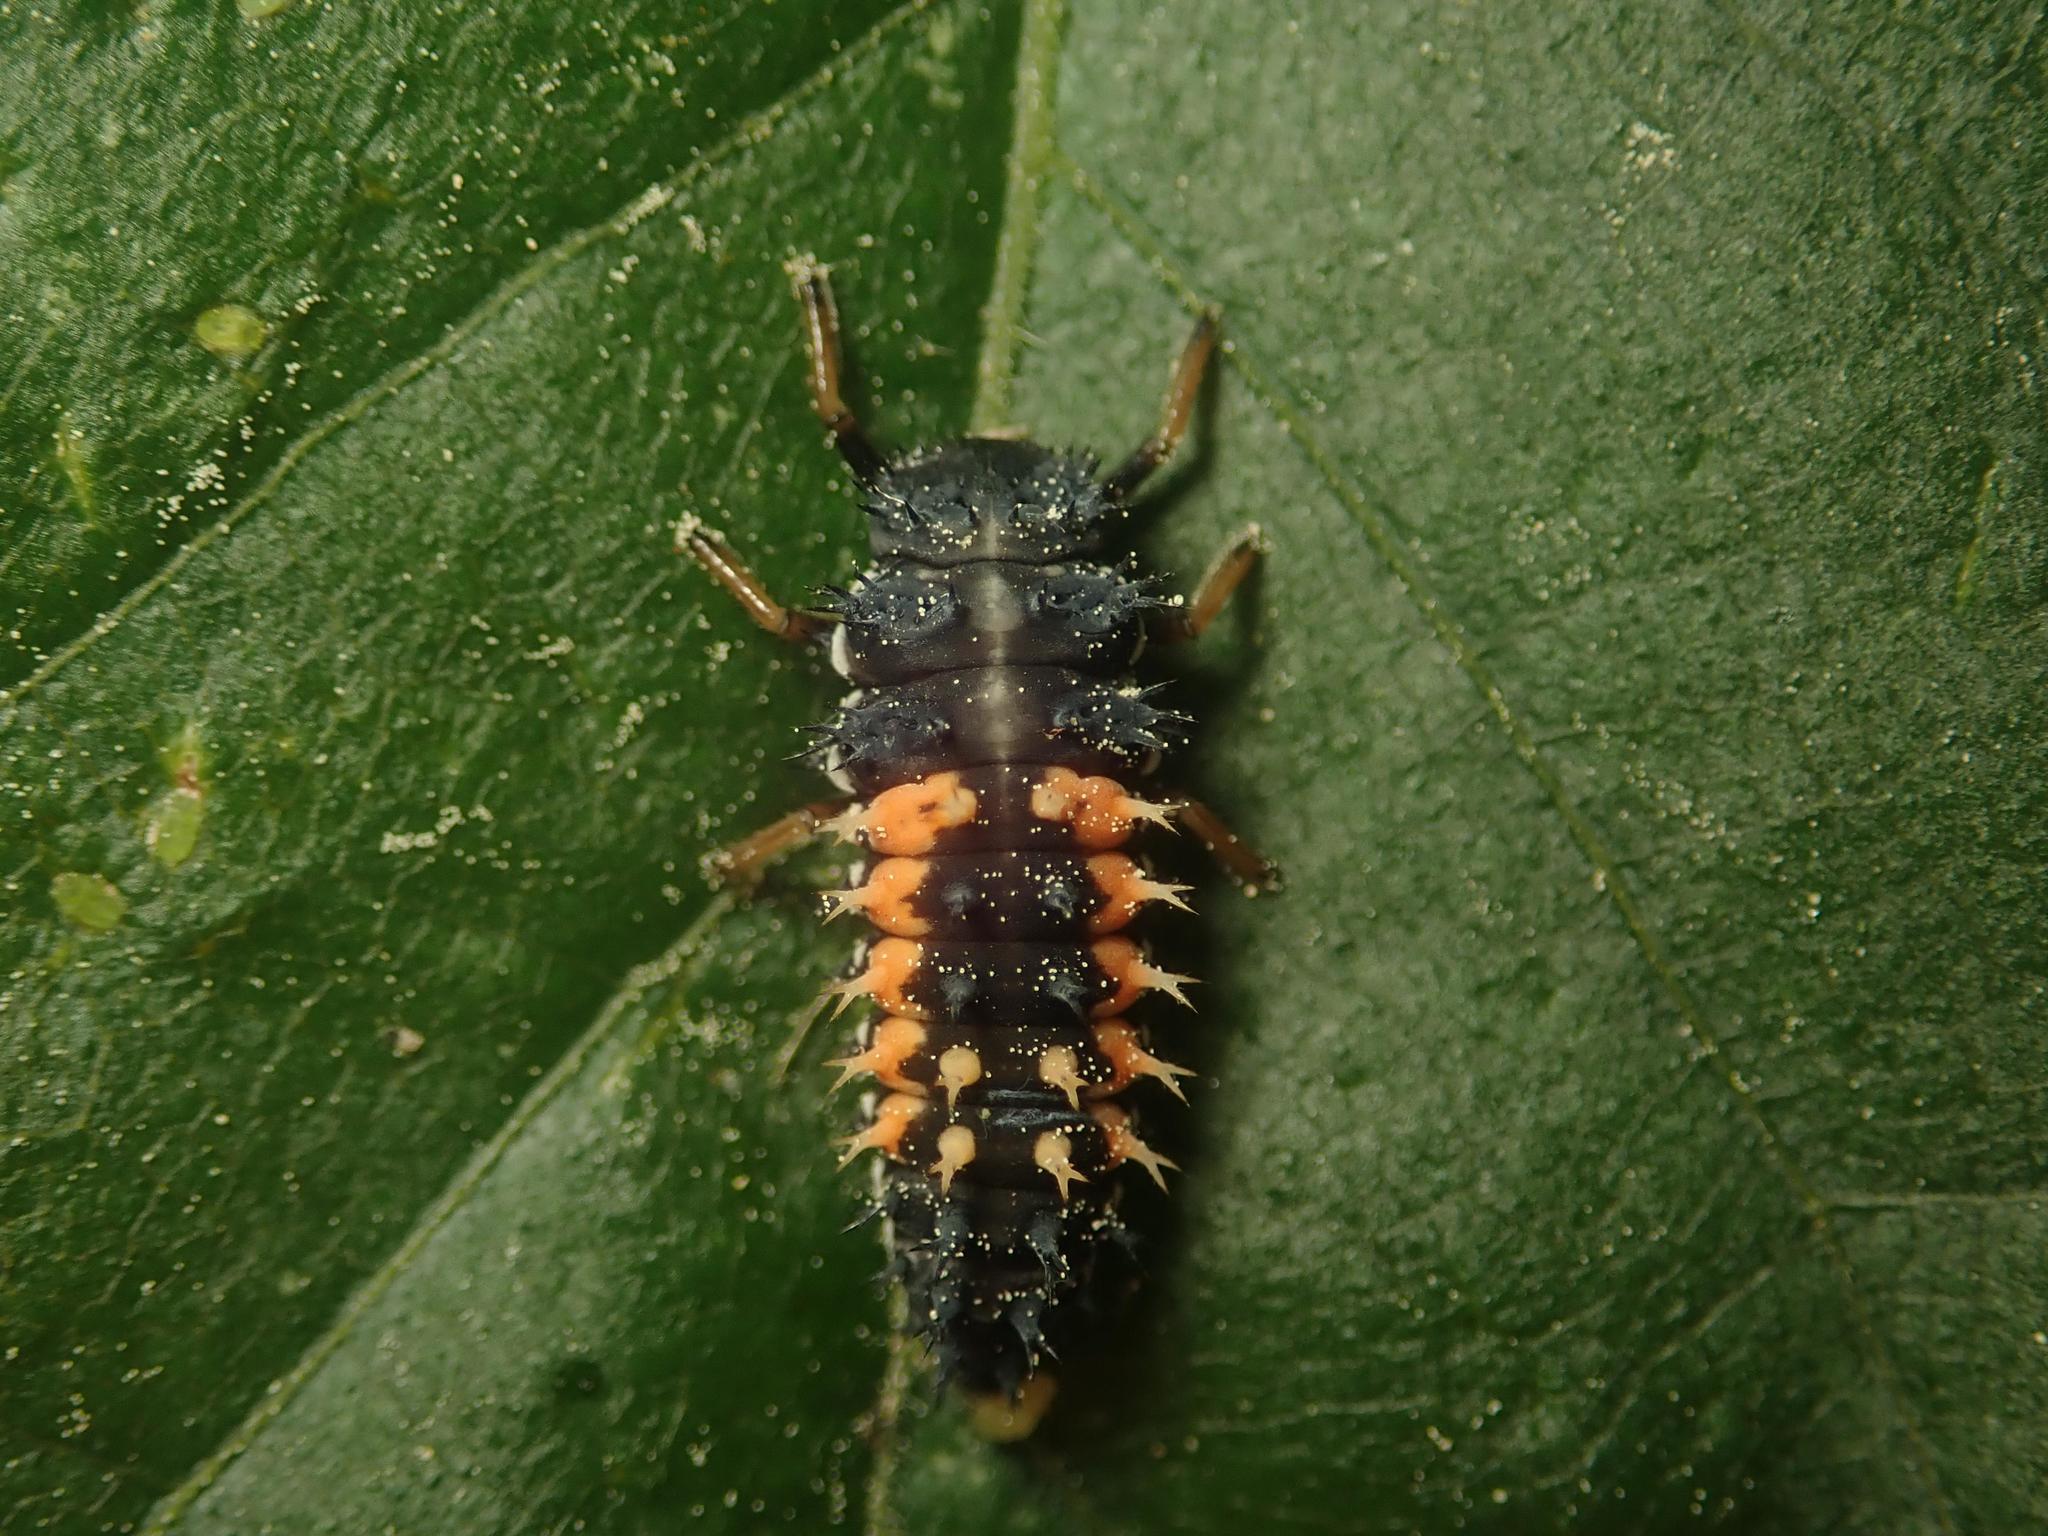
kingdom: Animalia
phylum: Arthropoda
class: Insecta
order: Coleoptera
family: Coccinellidae
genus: Harmonia
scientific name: Harmonia axyridis
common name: Harlequin ladybird
